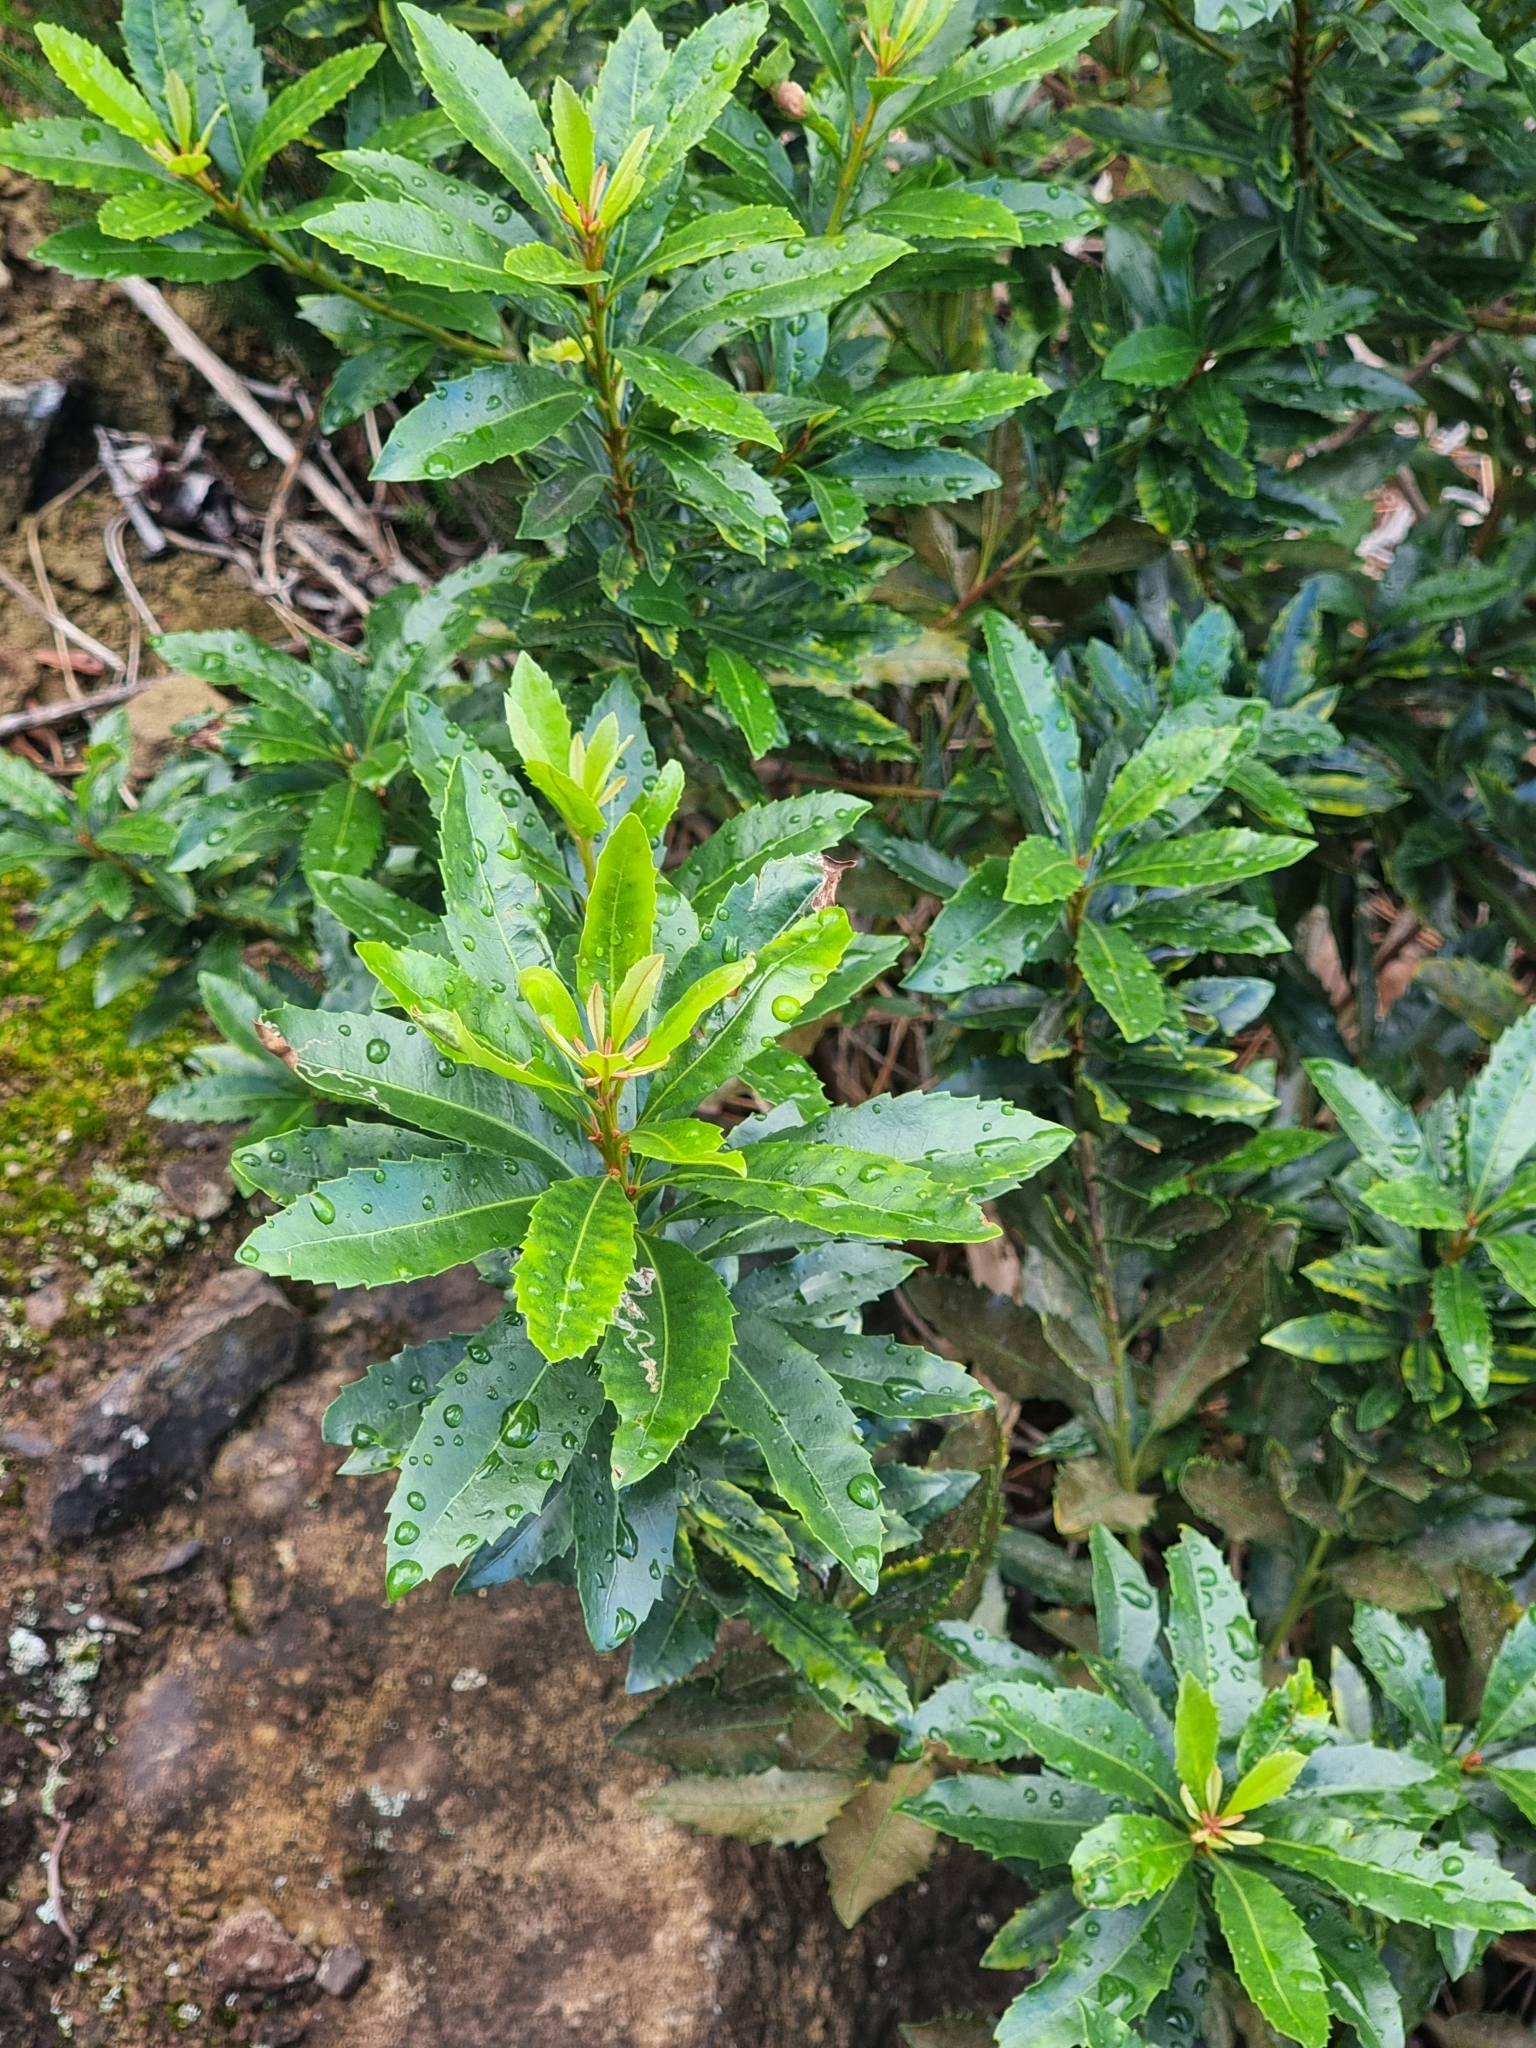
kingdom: Plantae
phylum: Tracheophyta
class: Magnoliopsida
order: Fagales
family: Myricaceae
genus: Morella
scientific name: Morella faya
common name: Firetree
